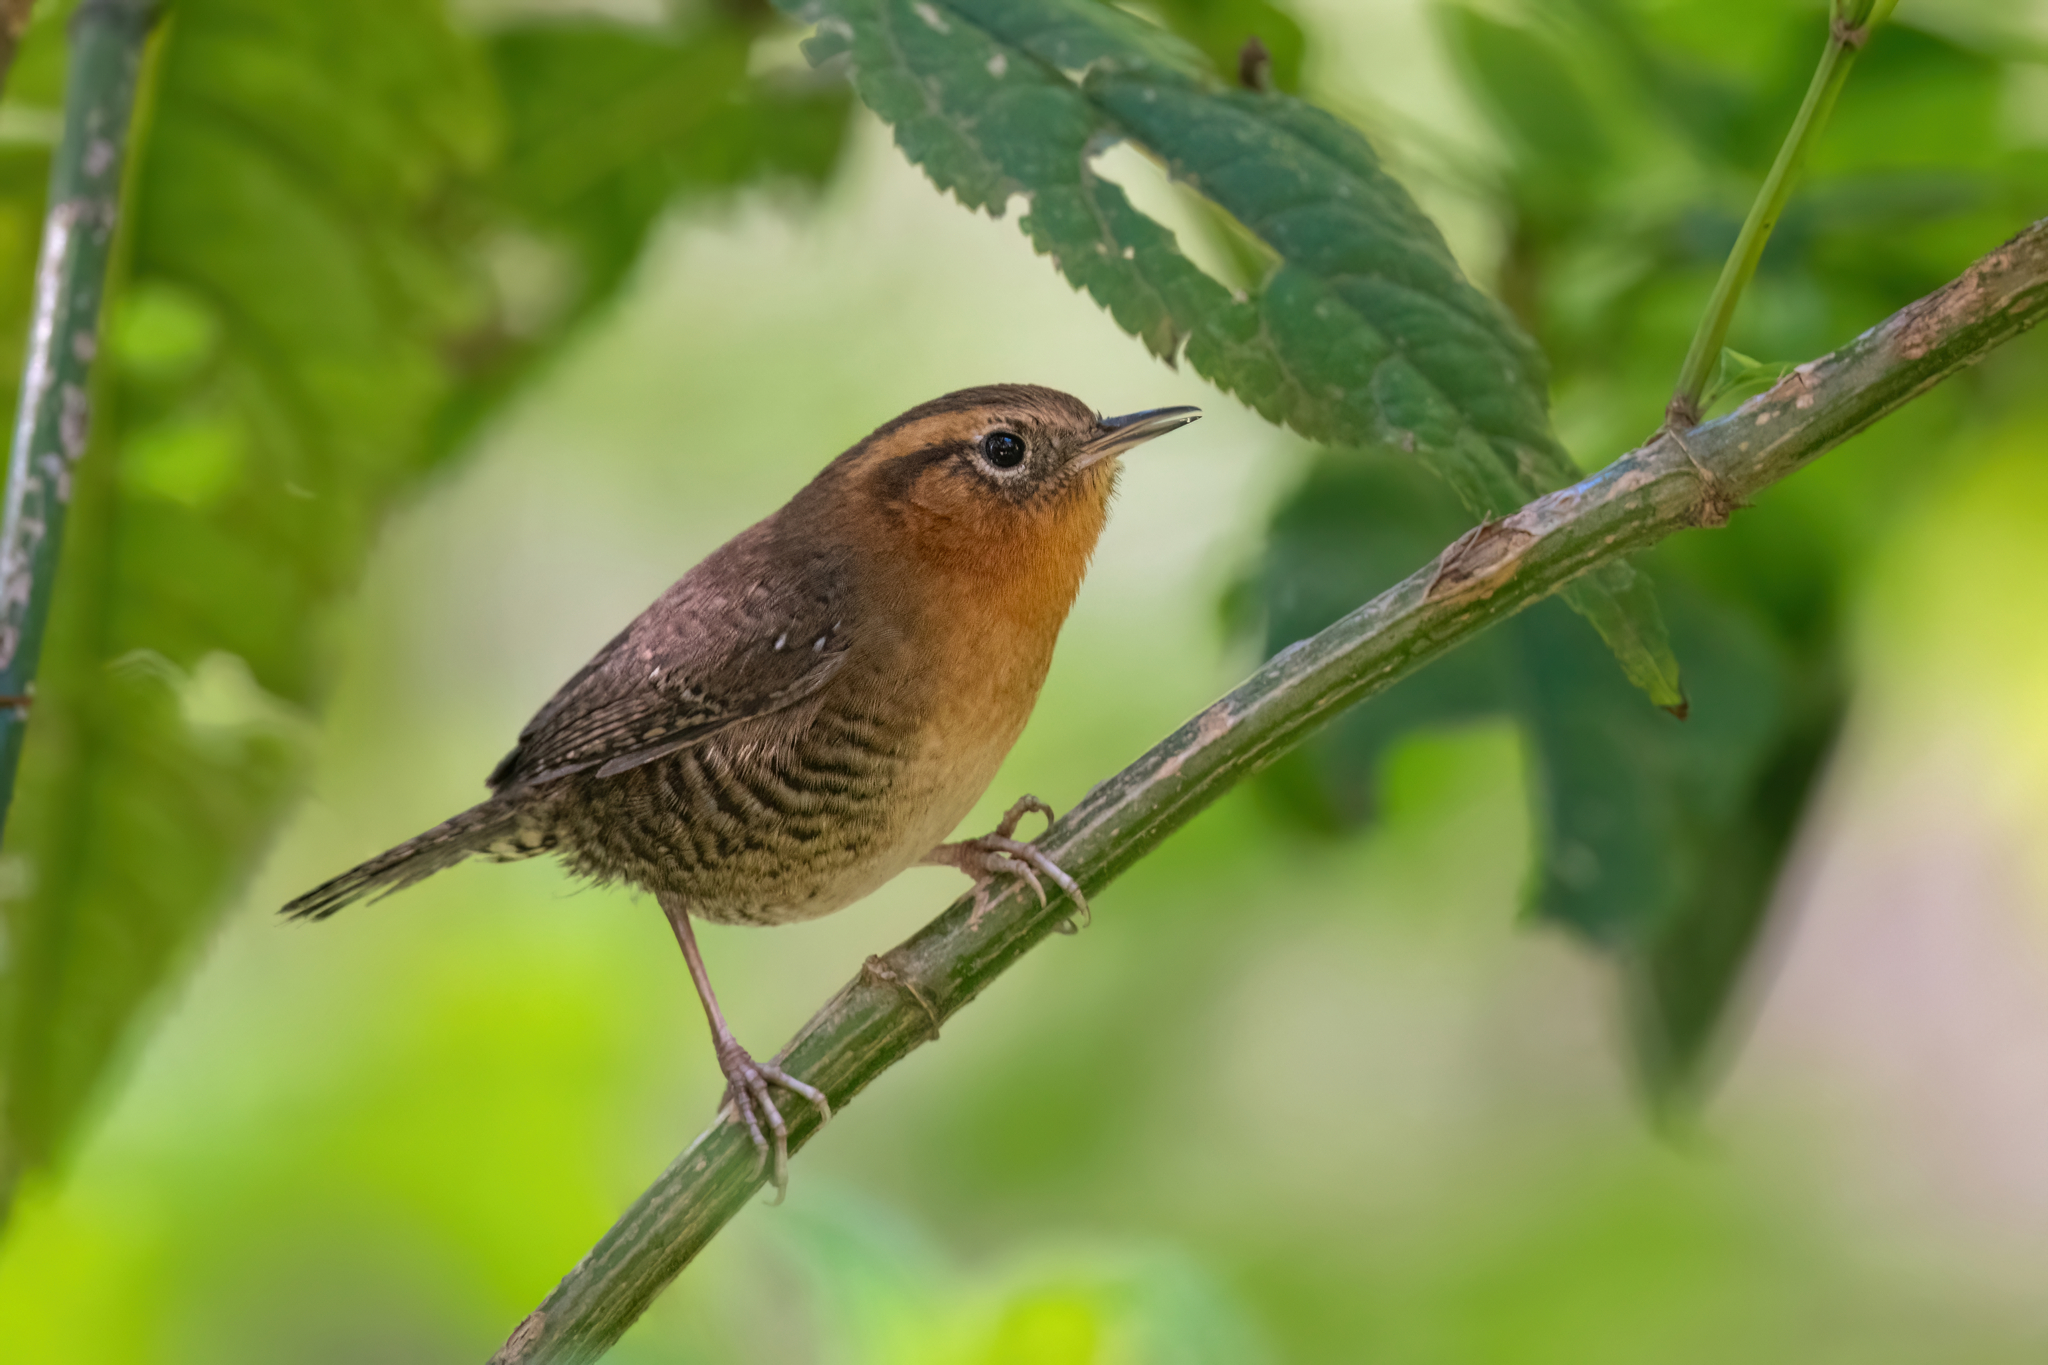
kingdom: Animalia
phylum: Chordata
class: Aves
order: Passeriformes
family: Troglodytidae
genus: Troglodytes
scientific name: Troglodytes rufociliatus
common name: Rufous-browed wren
